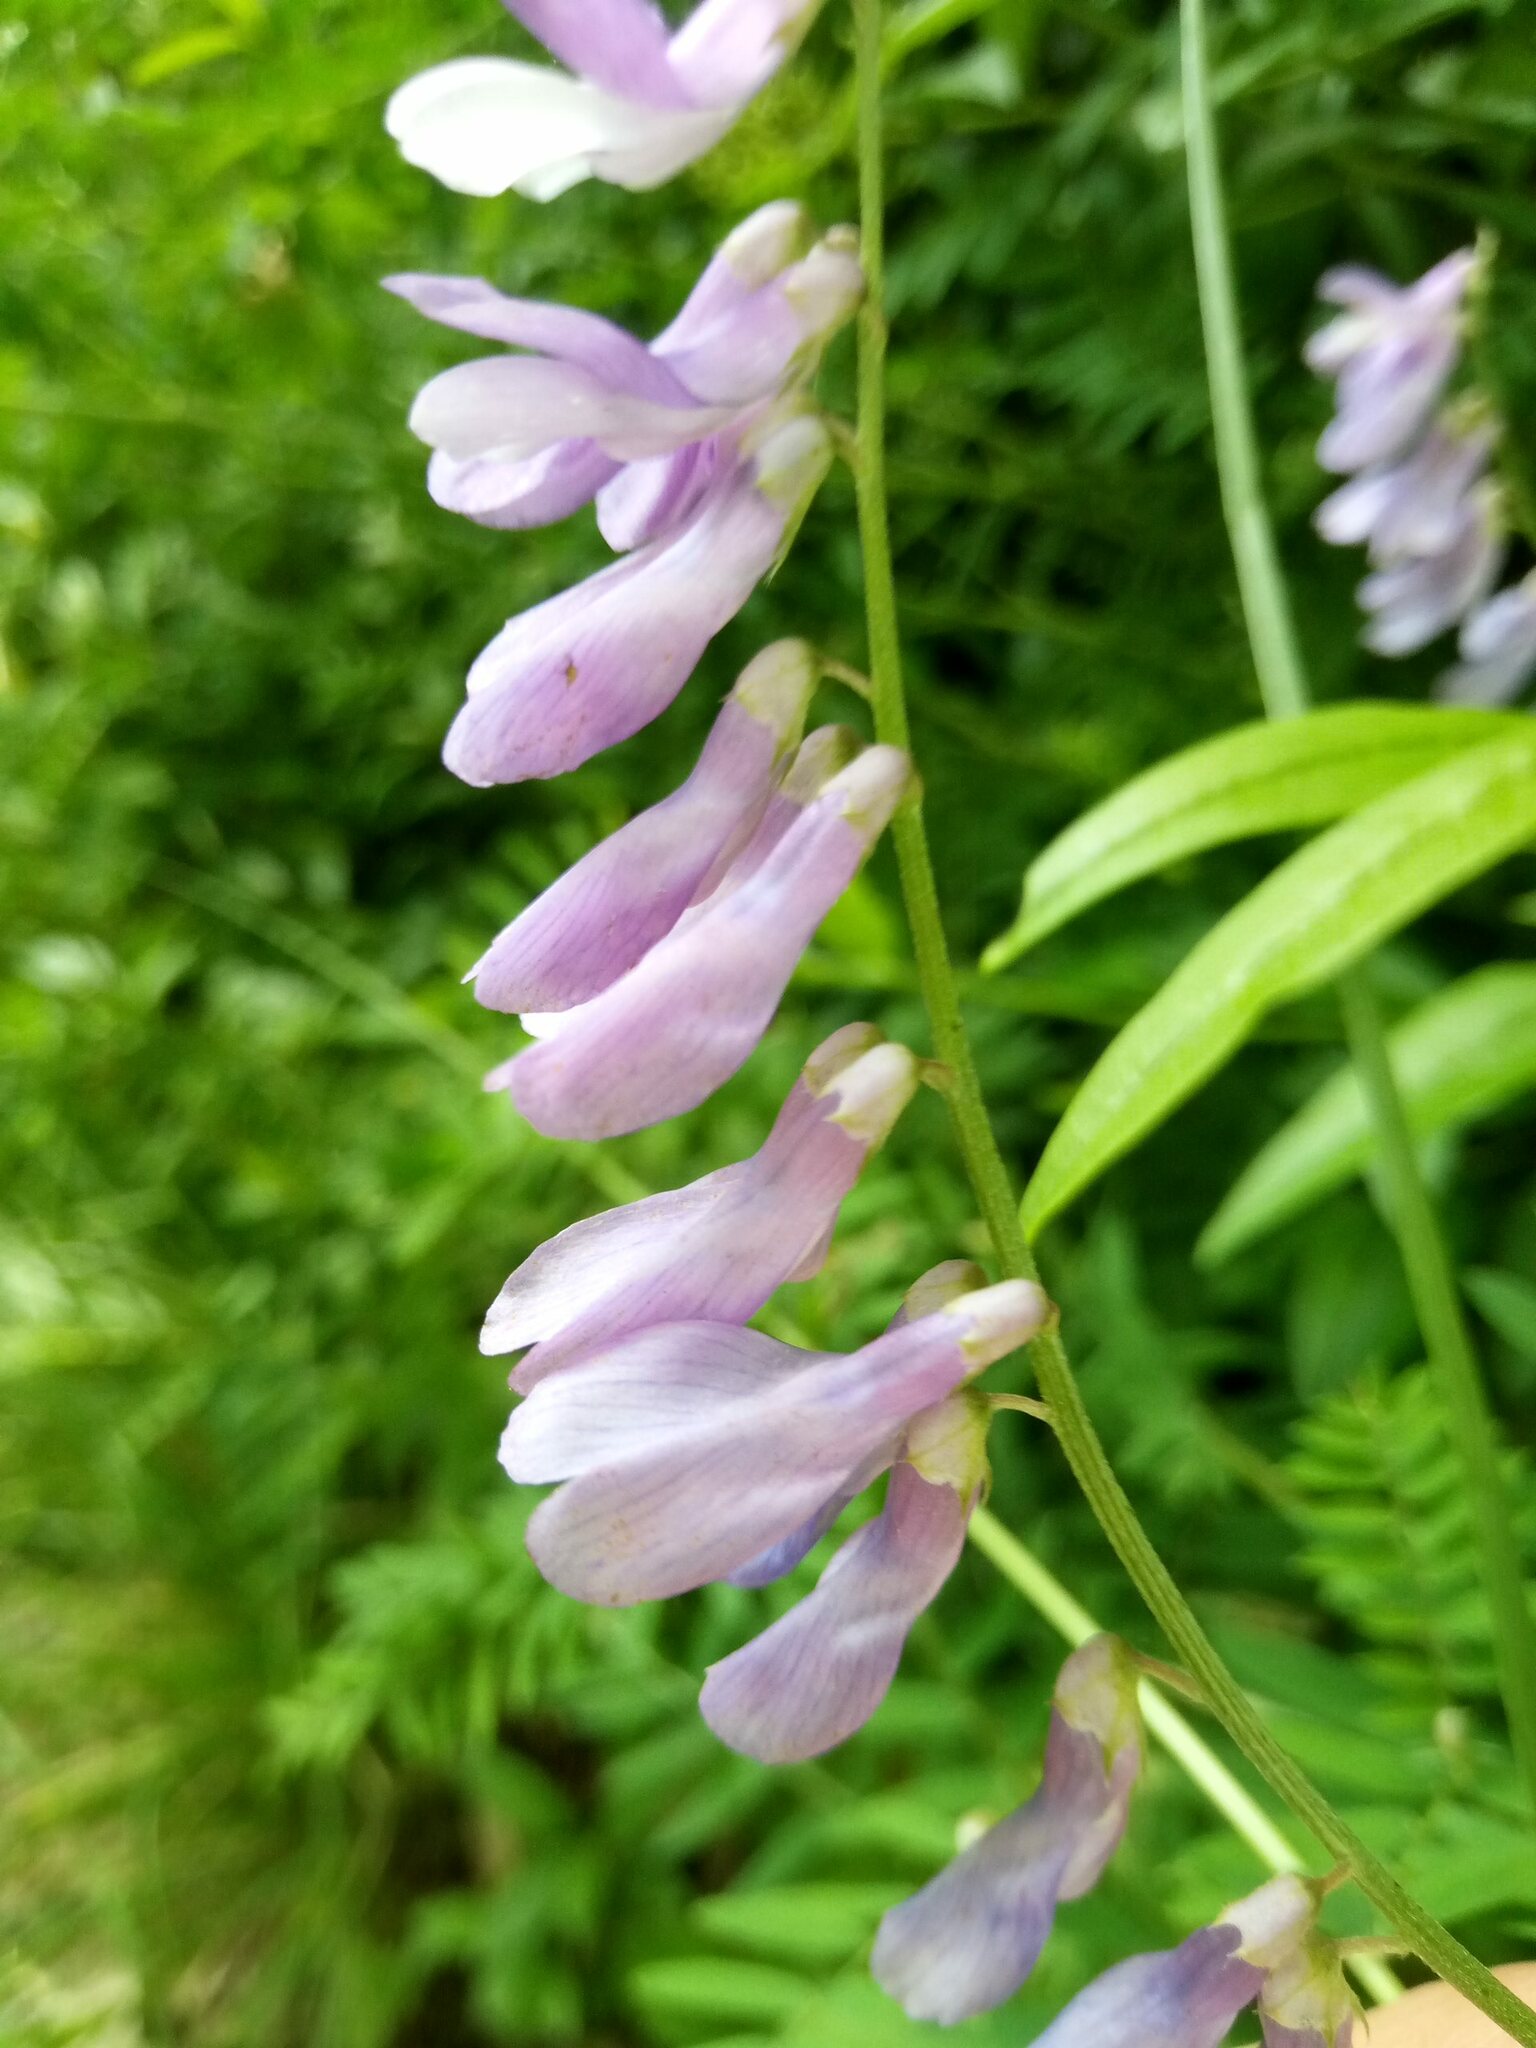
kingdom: Plantae
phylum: Tracheophyta
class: Magnoliopsida
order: Fabales
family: Fabaceae
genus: Vicia
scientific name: Vicia tenuifolia
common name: Fine-leaved vetch
